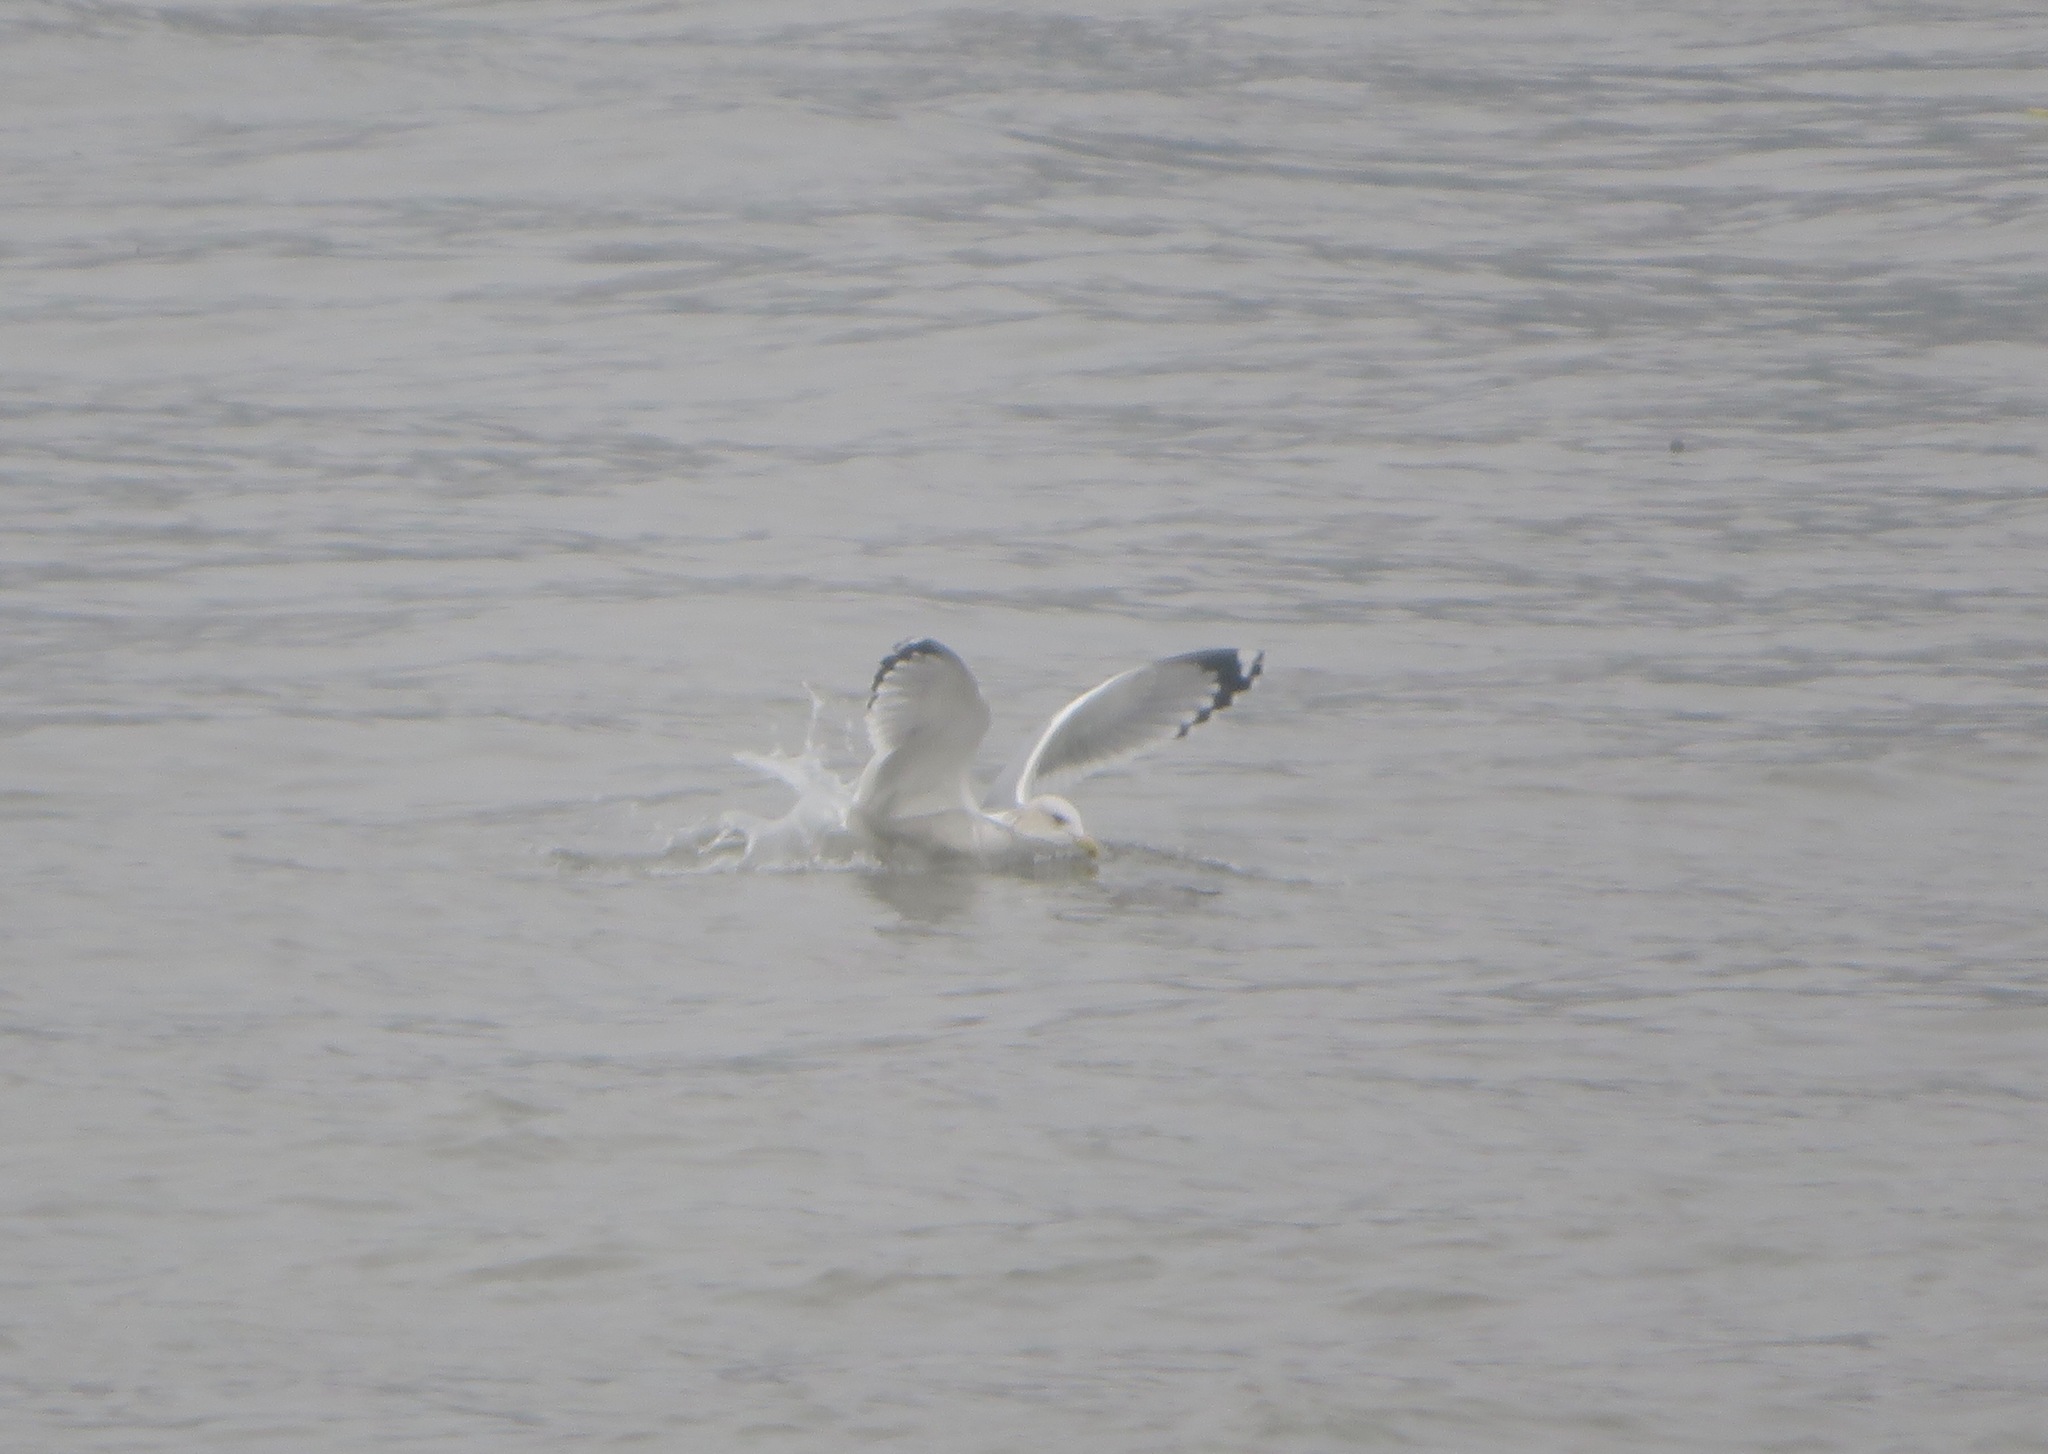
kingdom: Animalia
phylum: Chordata
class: Aves
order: Charadriiformes
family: Laridae
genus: Larus
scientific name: Larus vegae
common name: Vega gull
